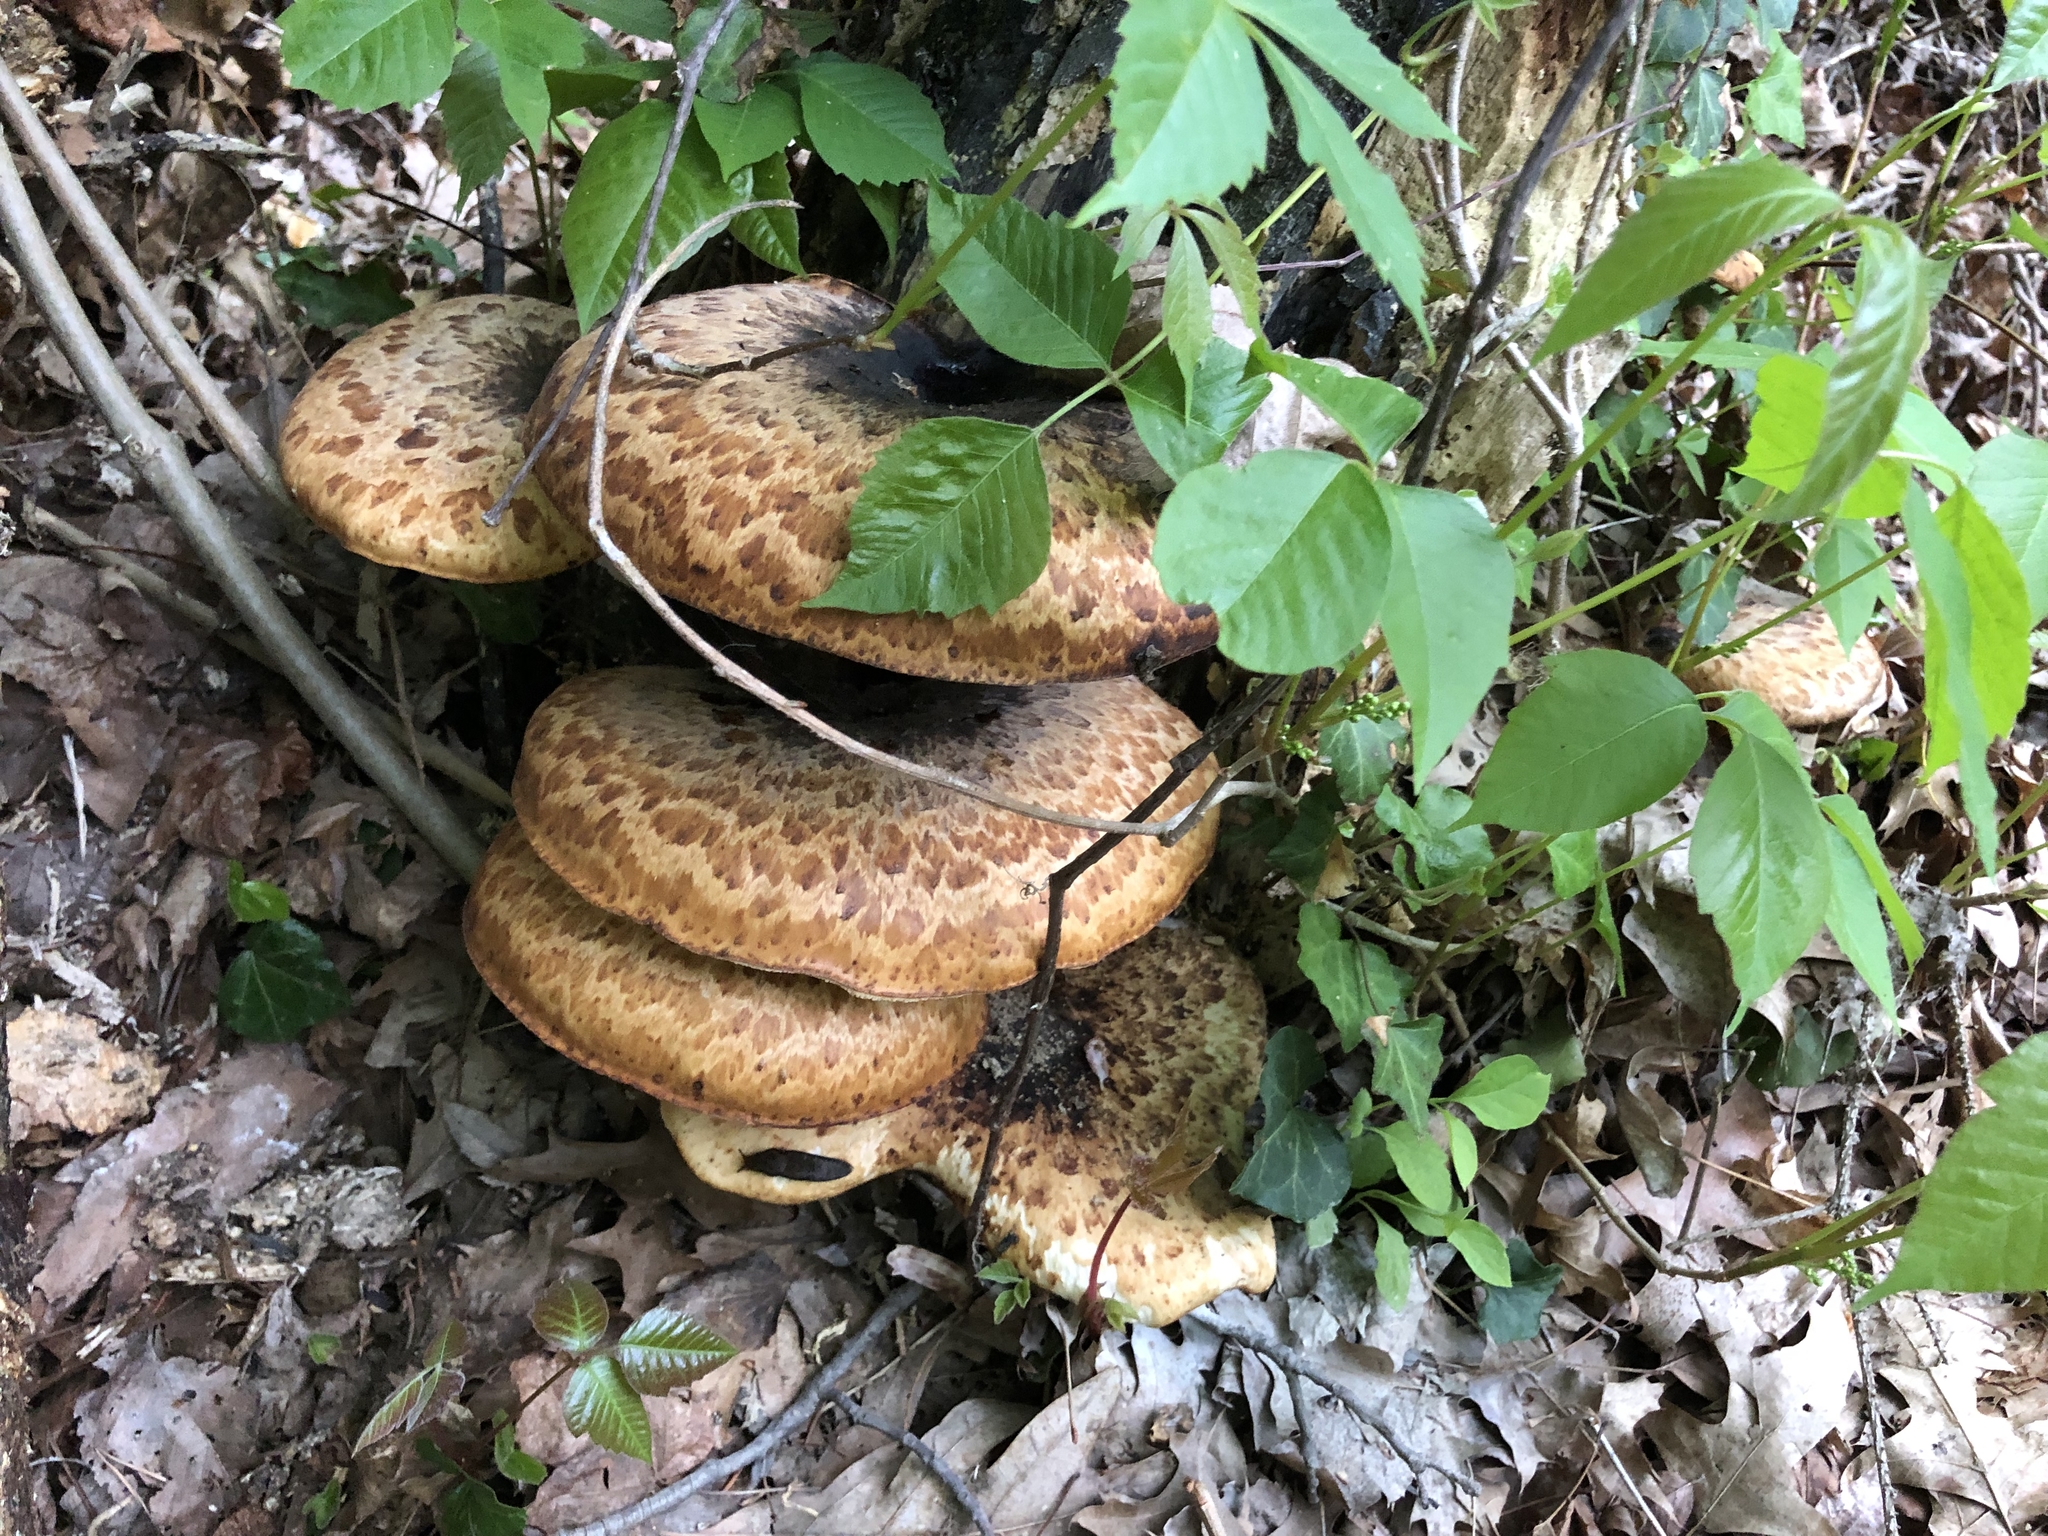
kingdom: Fungi
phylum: Basidiomycota
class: Agaricomycetes
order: Polyporales
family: Polyporaceae
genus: Cerioporus
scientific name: Cerioporus squamosus
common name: Dryad's saddle
